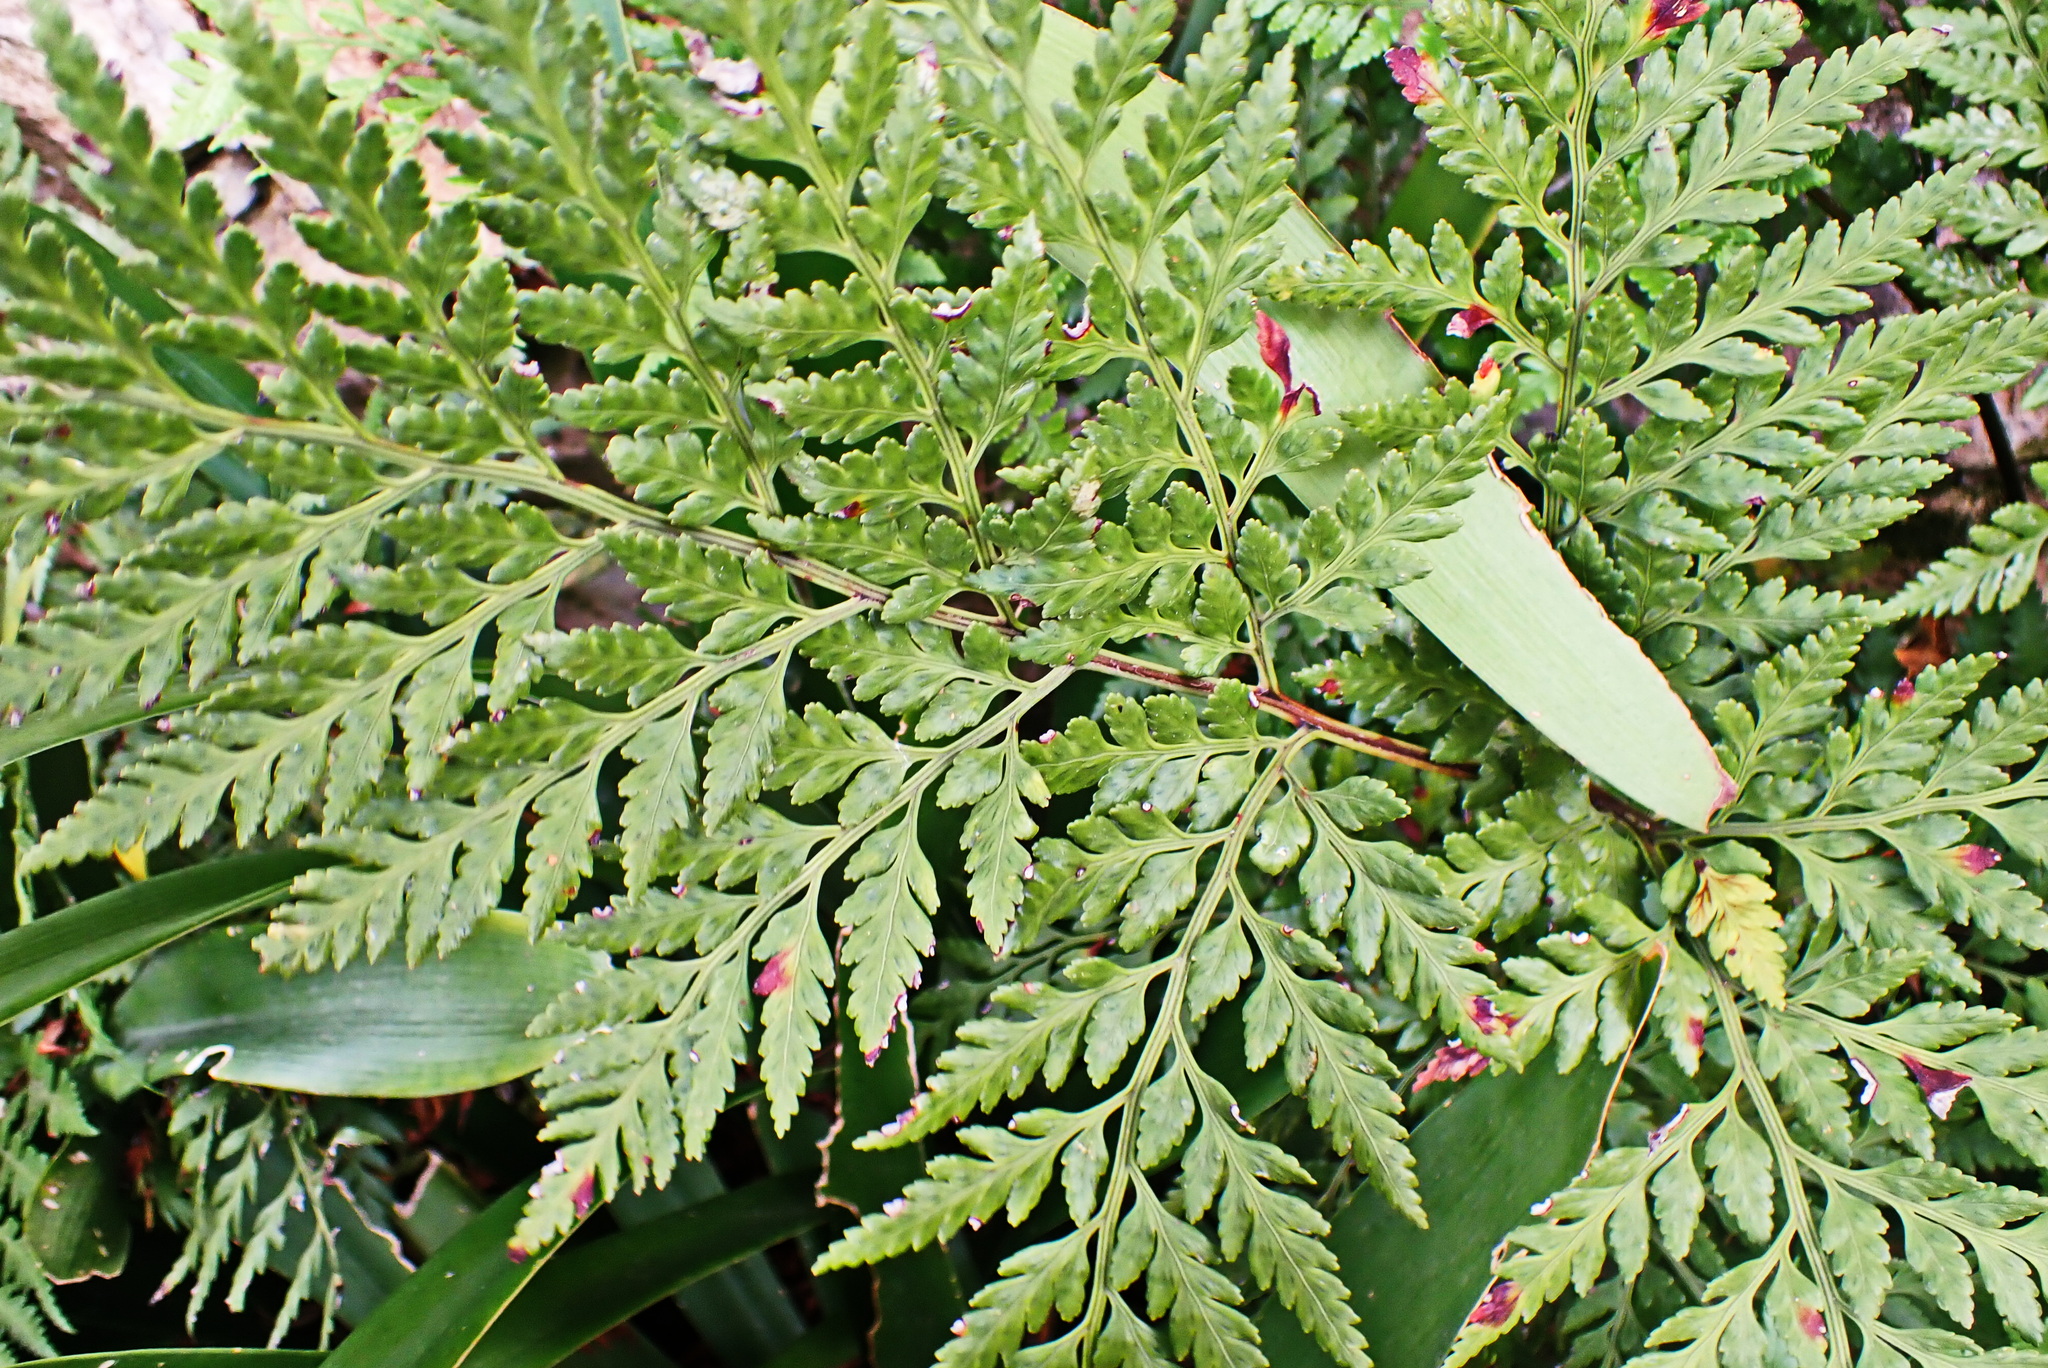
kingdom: Plantae
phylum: Tracheophyta
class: Polypodiopsida
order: Polypodiales
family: Dryopteridaceae
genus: Rumohra
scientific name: Rumohra adiantiformis
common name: Leather fern
